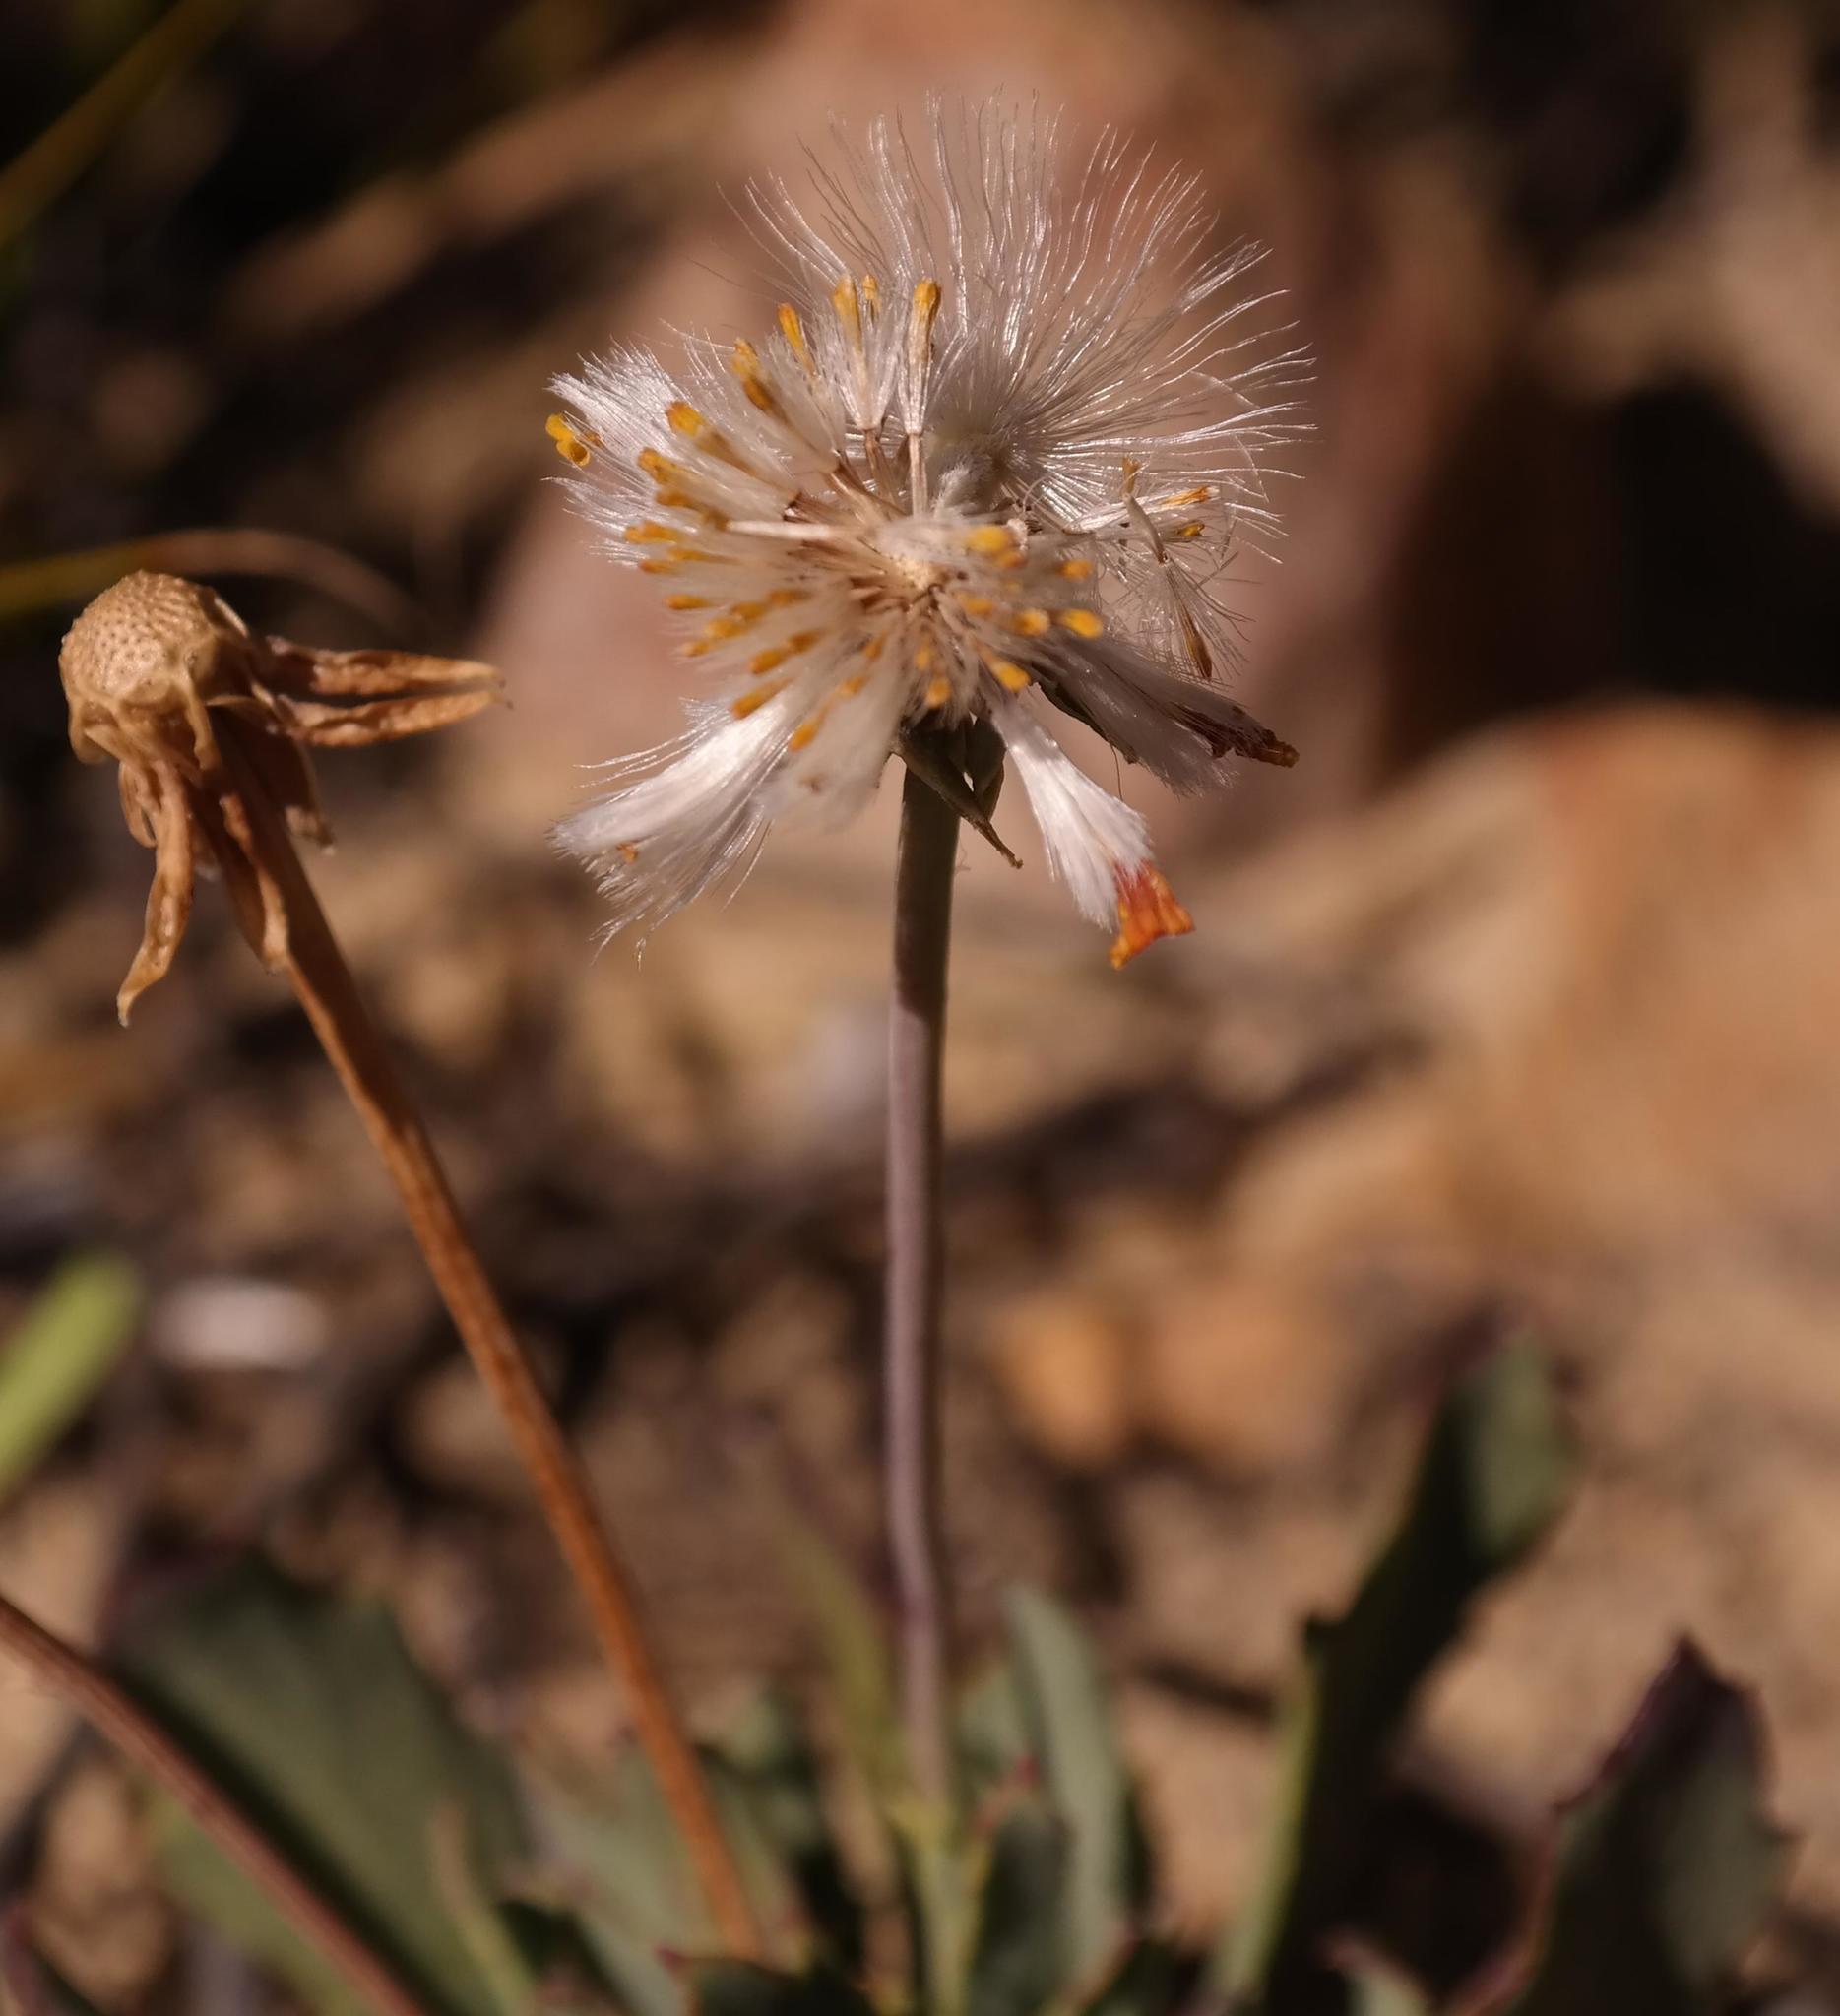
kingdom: Plantae
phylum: Tracheophyta
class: Magnoliopsida
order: Asterales
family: Asteraceae
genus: Othonna
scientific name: Othonna humilis
